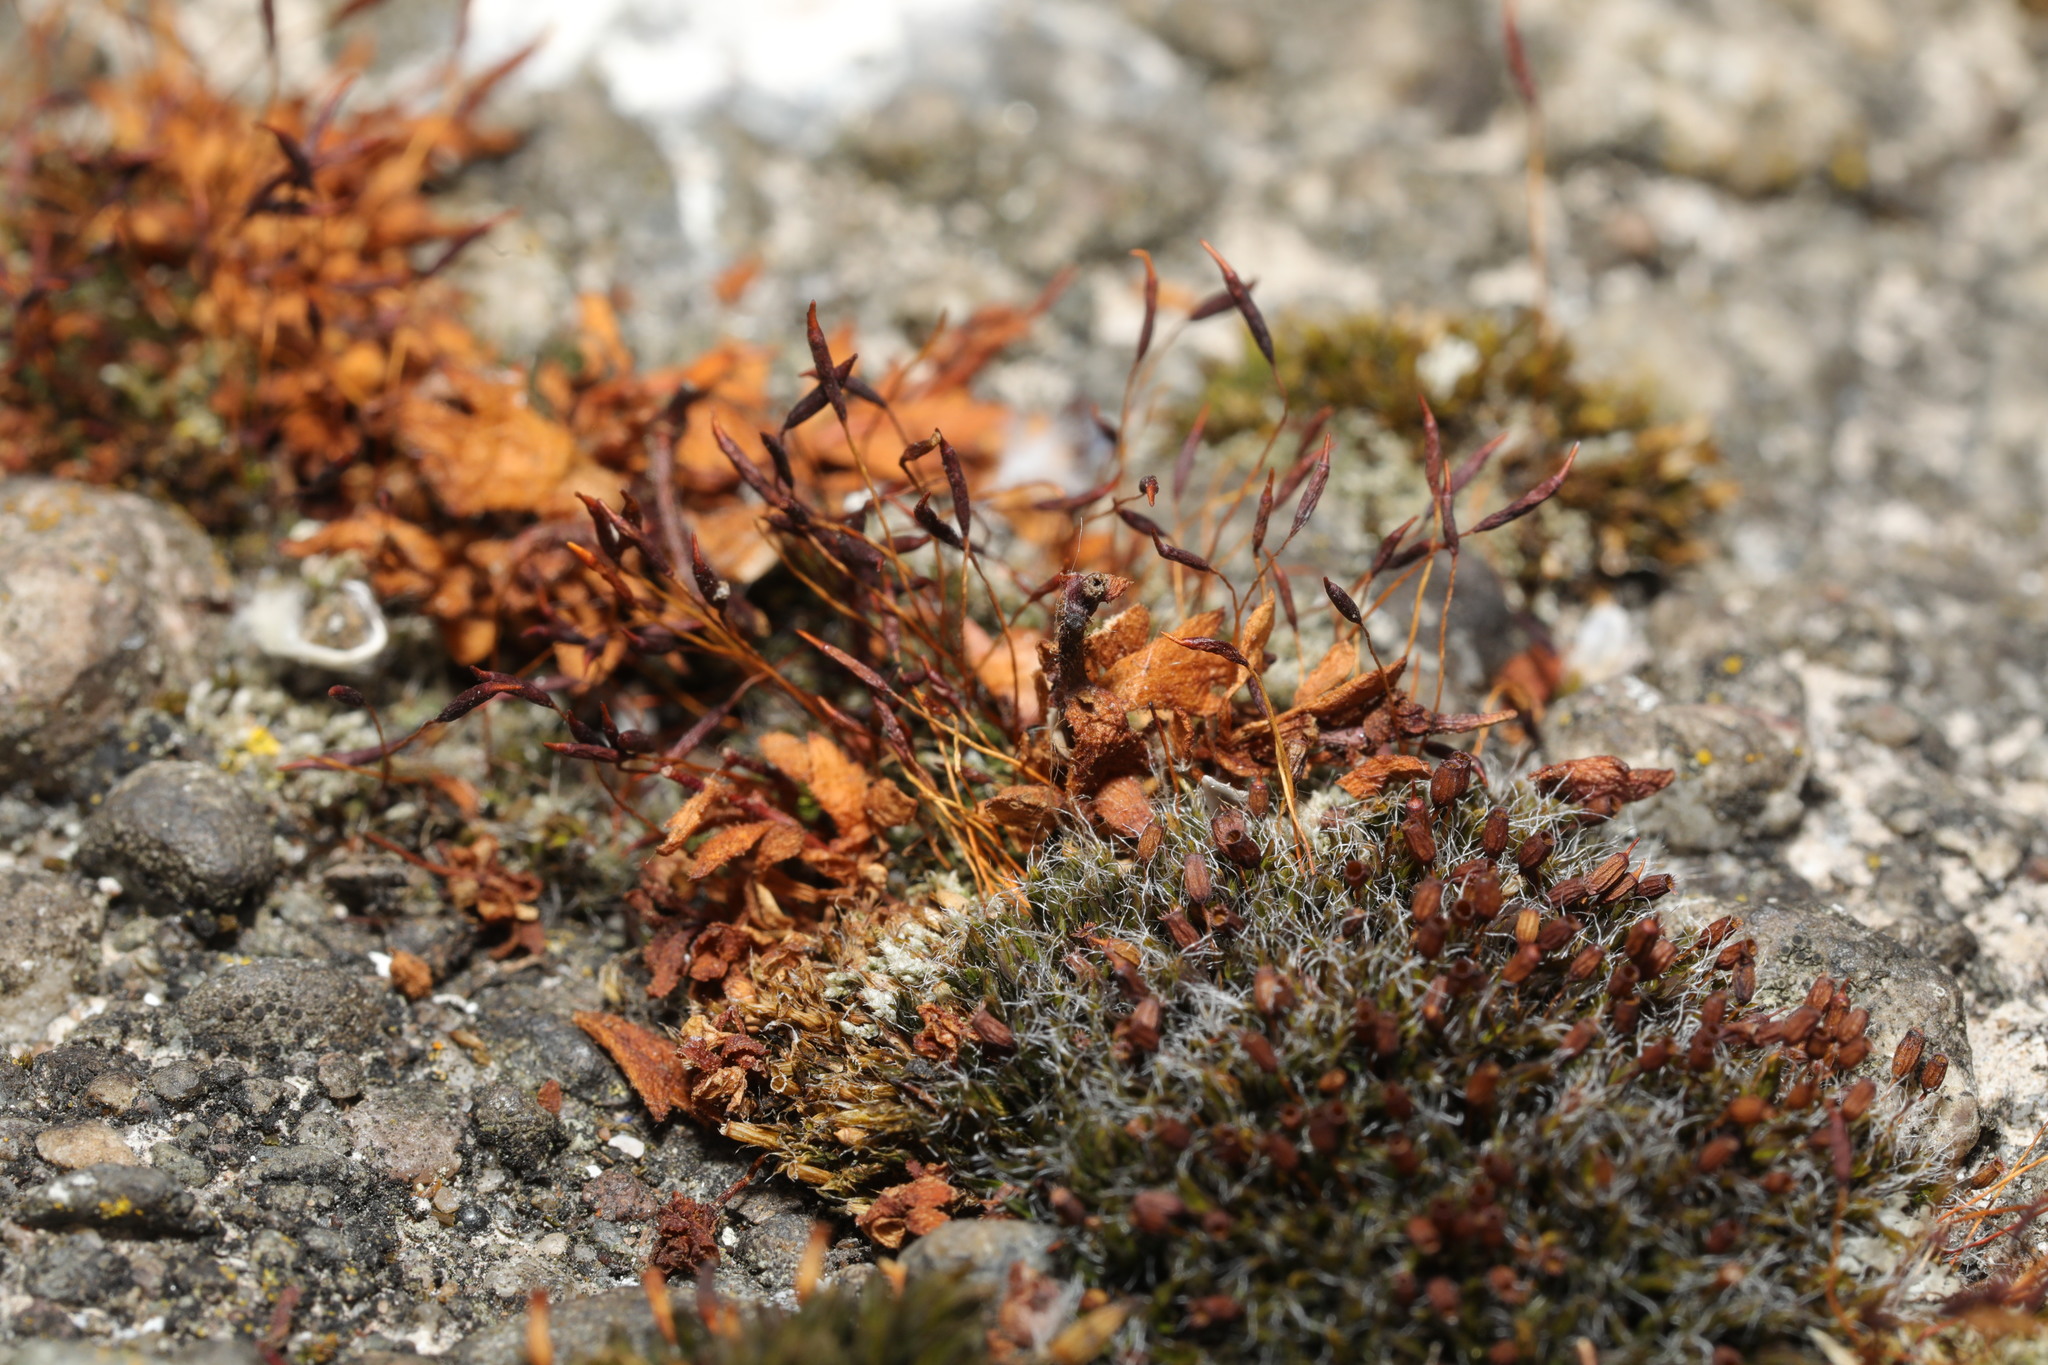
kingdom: Plantae
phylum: Bryophyta
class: Bryopsida
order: Pottiales
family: Pottiaceae
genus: Tortula
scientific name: Tortula muralis
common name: Wall screw-moss
